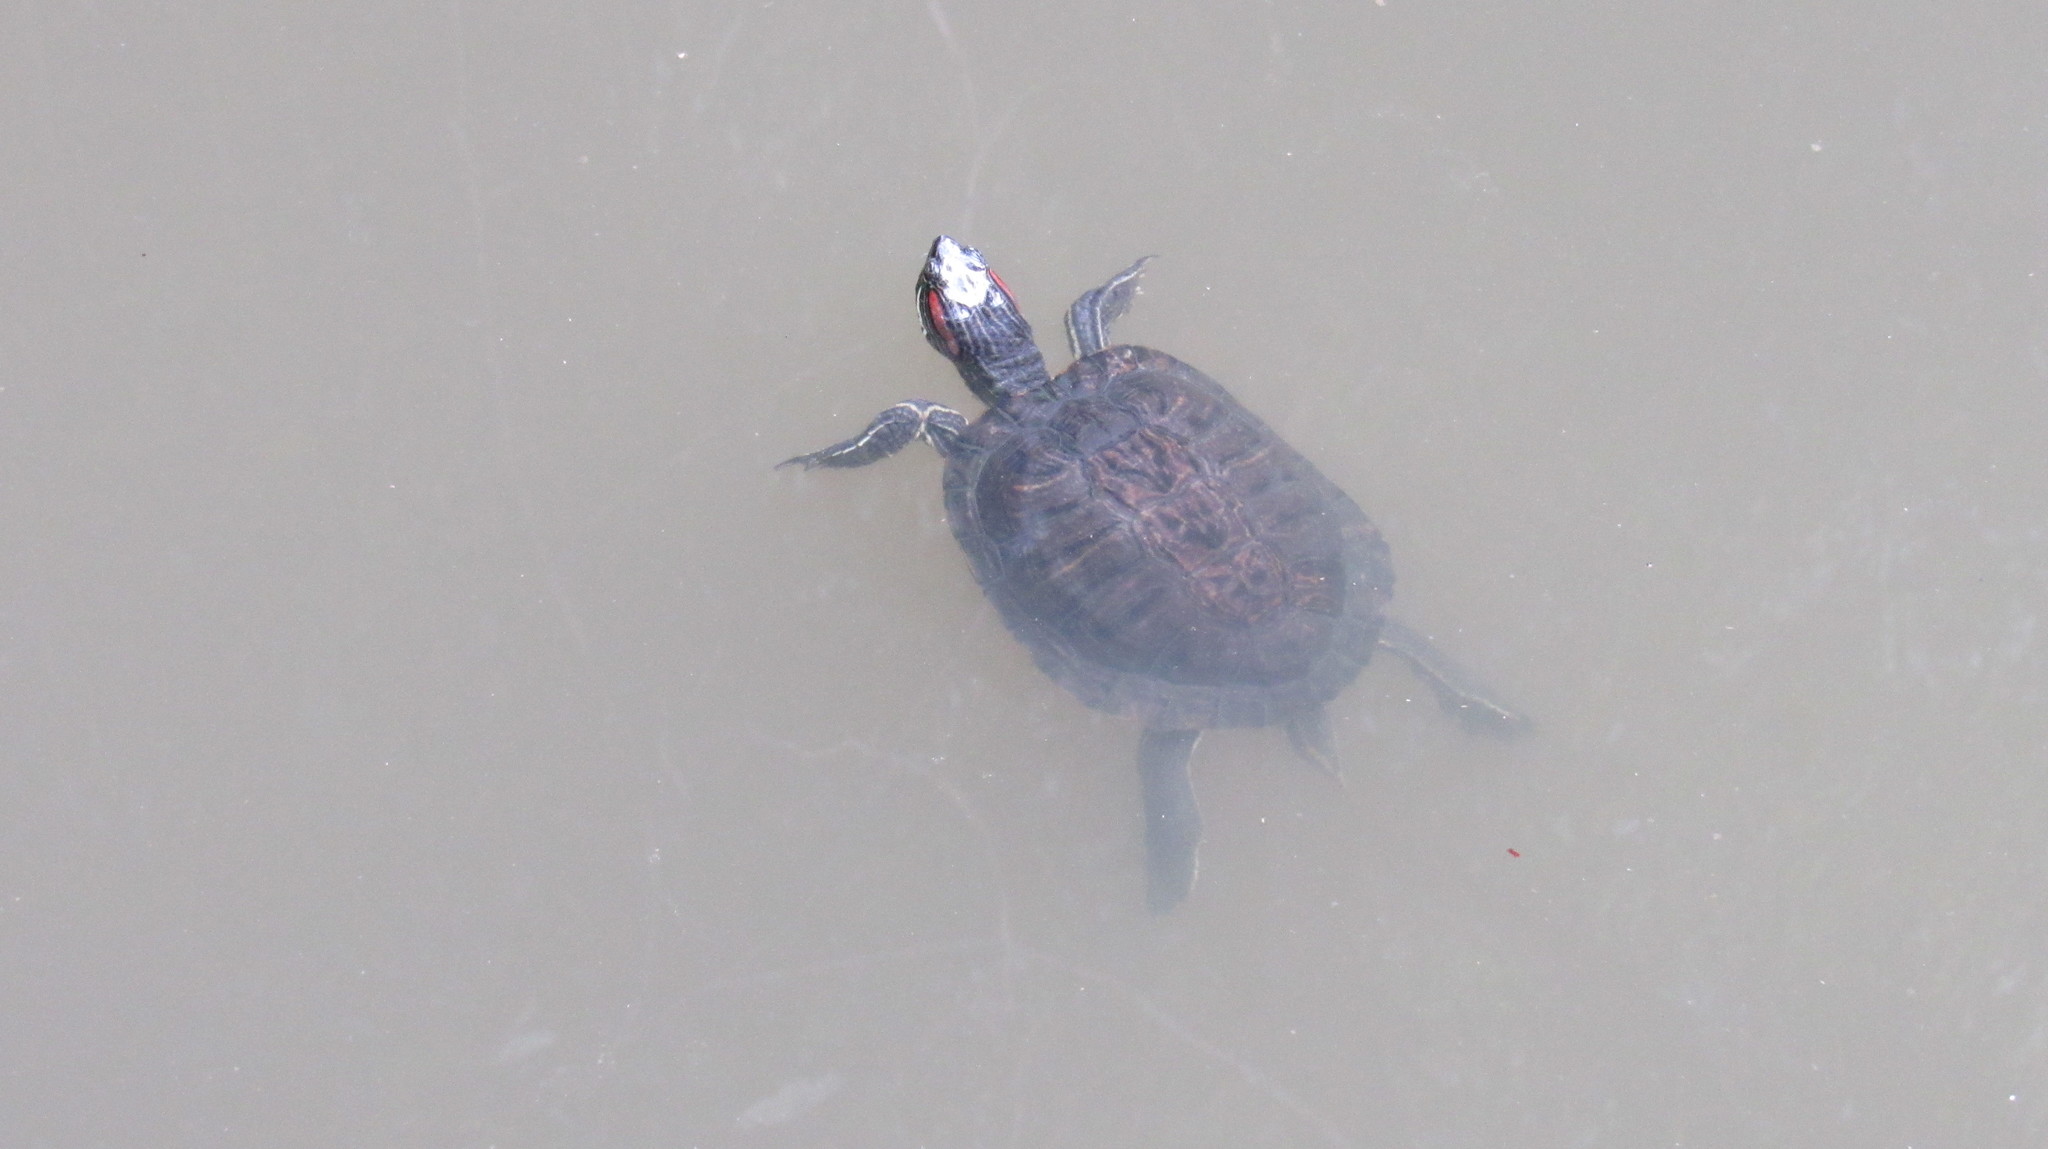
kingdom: Animalia
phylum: Chordata
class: Testudines
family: Emydidae
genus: Trachemys
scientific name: Trachemys scripta
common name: Slider
